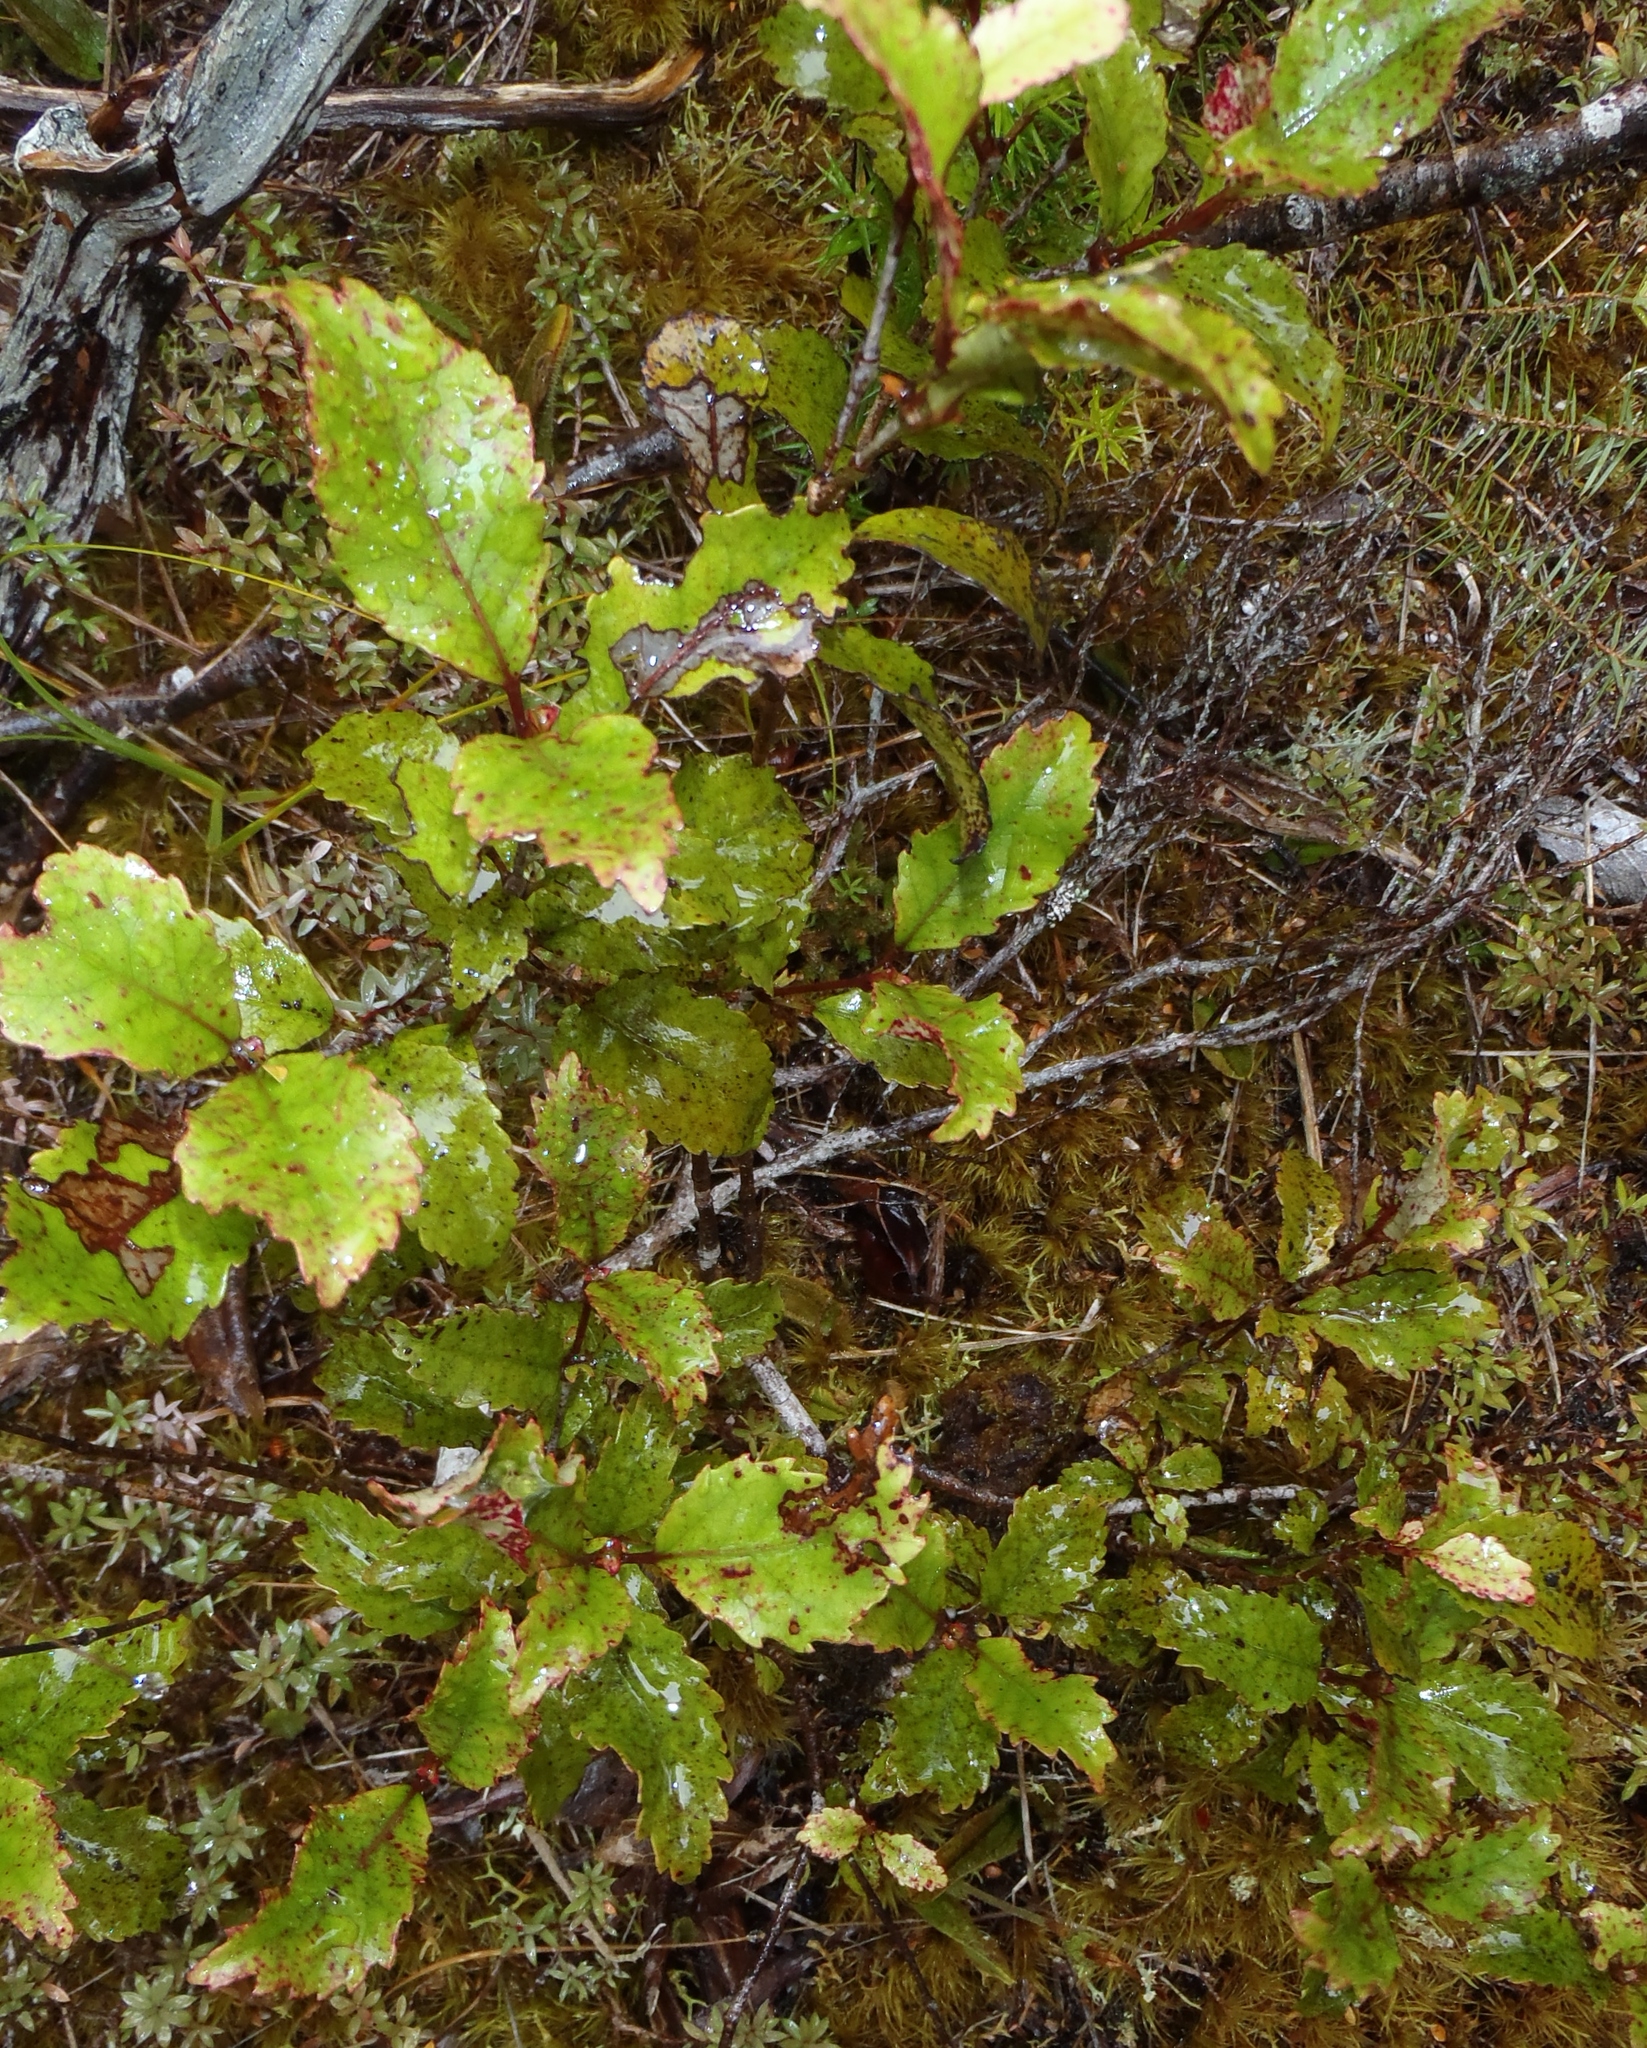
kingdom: Plantae
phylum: Tracheophyta
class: Magnoliopsida
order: Oxalidales
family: Cunoniaceae
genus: Pterophylla
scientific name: Pterophylla racemosa
